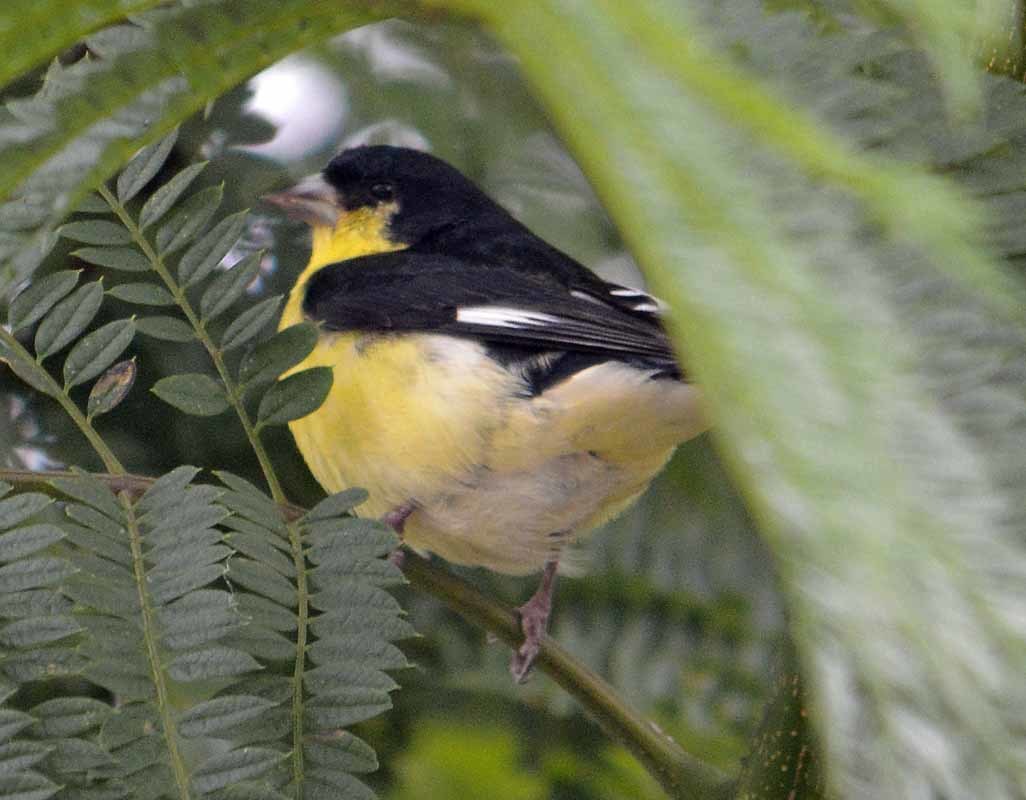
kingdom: Animalia
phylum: Chordata
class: Aves
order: Passeriformes
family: Fringillidae
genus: Spinus
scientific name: Spinus psaltria
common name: Lesser goldfinch
